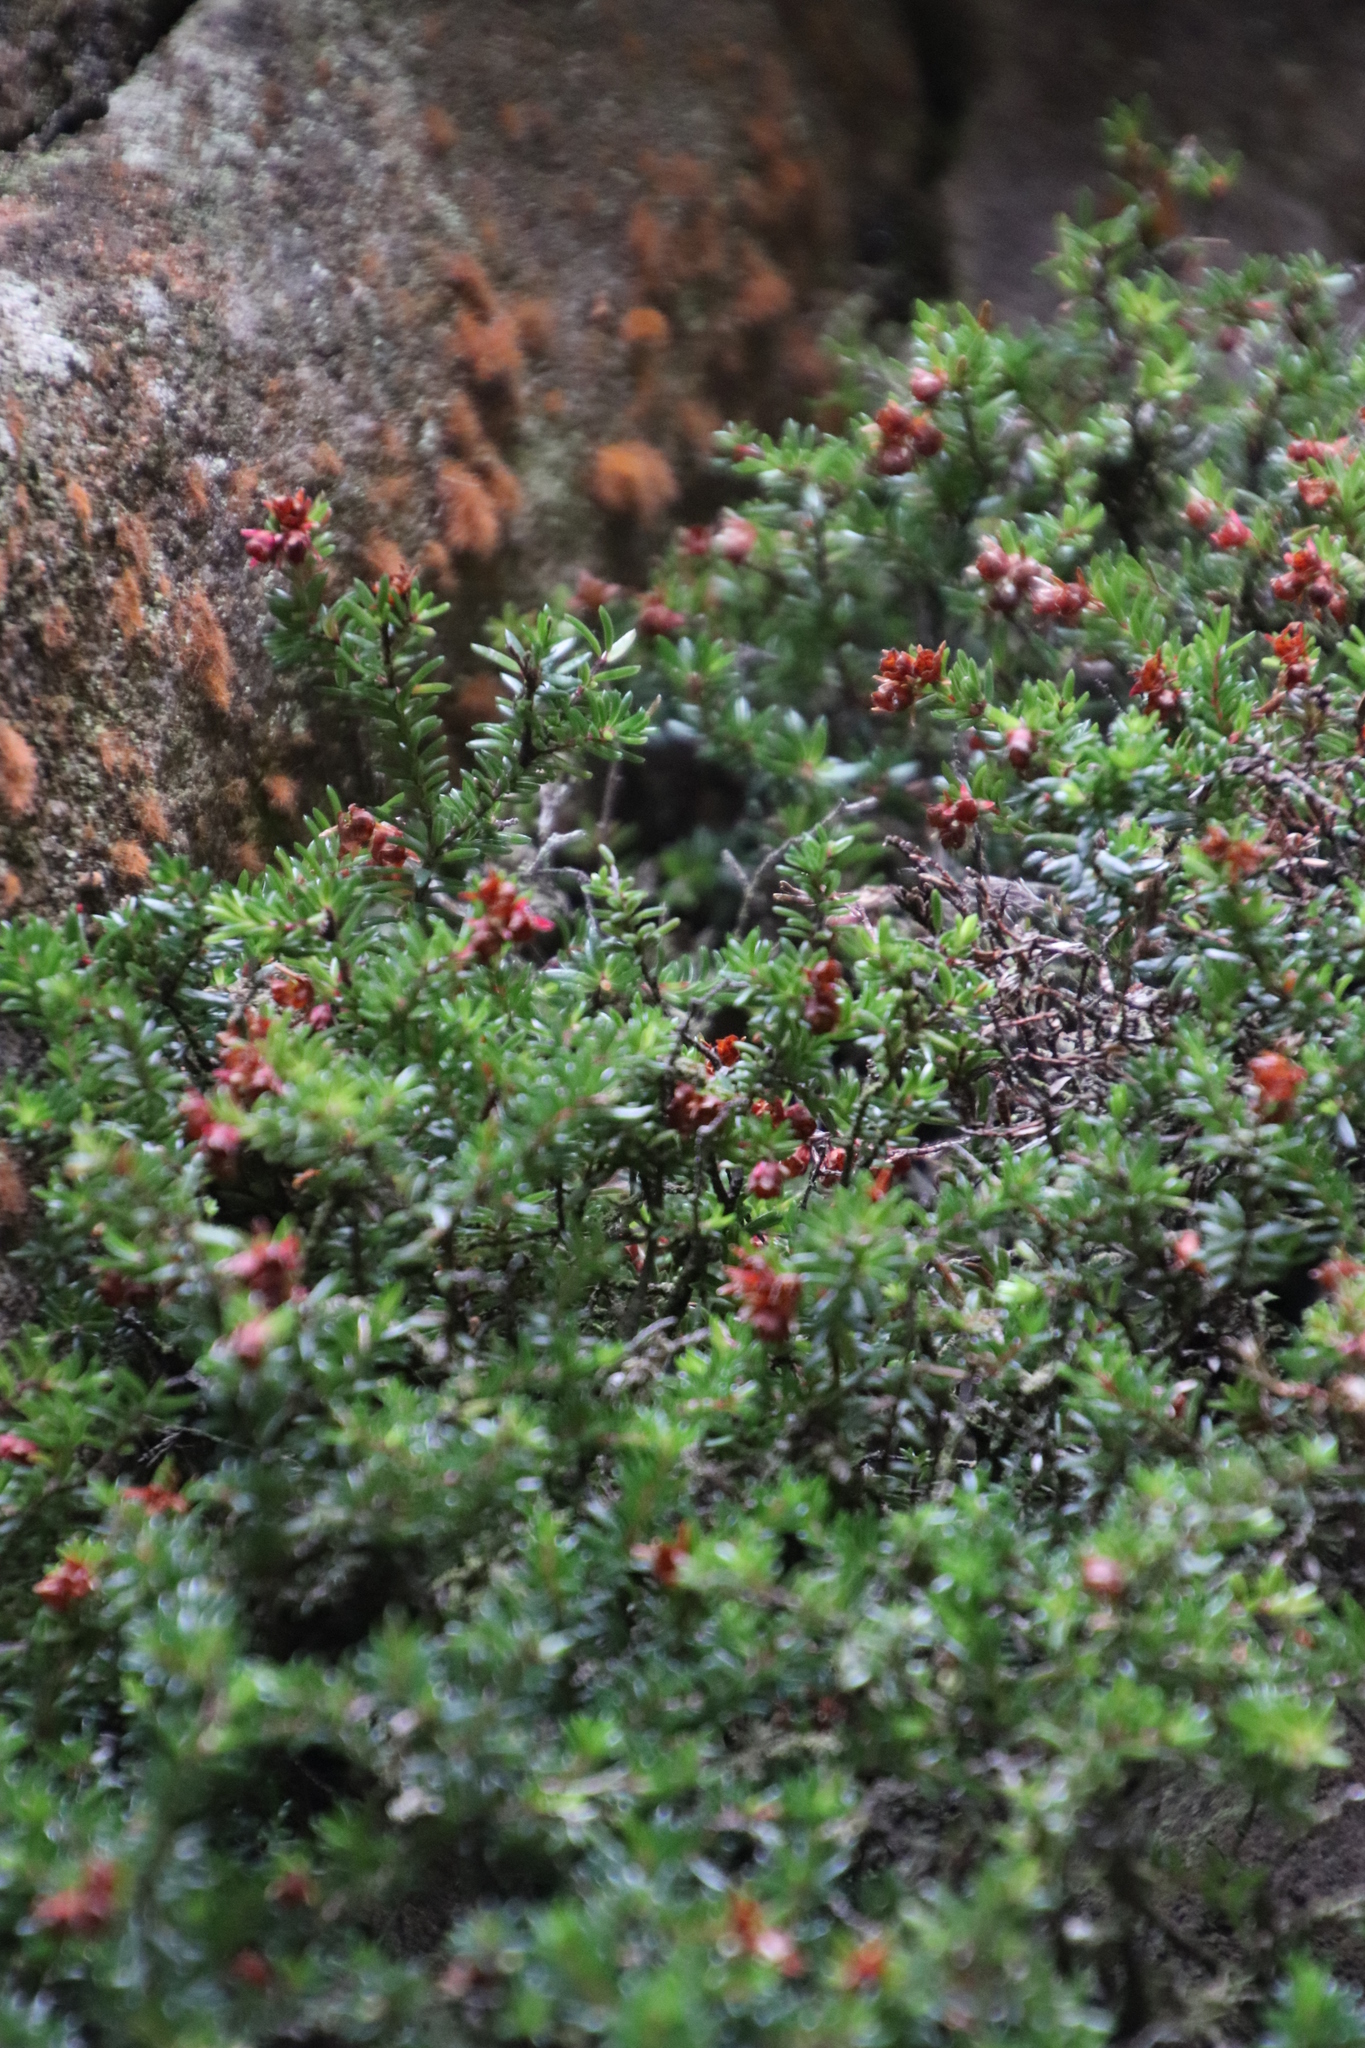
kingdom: Plantae
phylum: Tracheophyta
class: Magnoliopsida
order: Ericales
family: Ericaceae
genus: Erica
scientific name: Erica depressa
